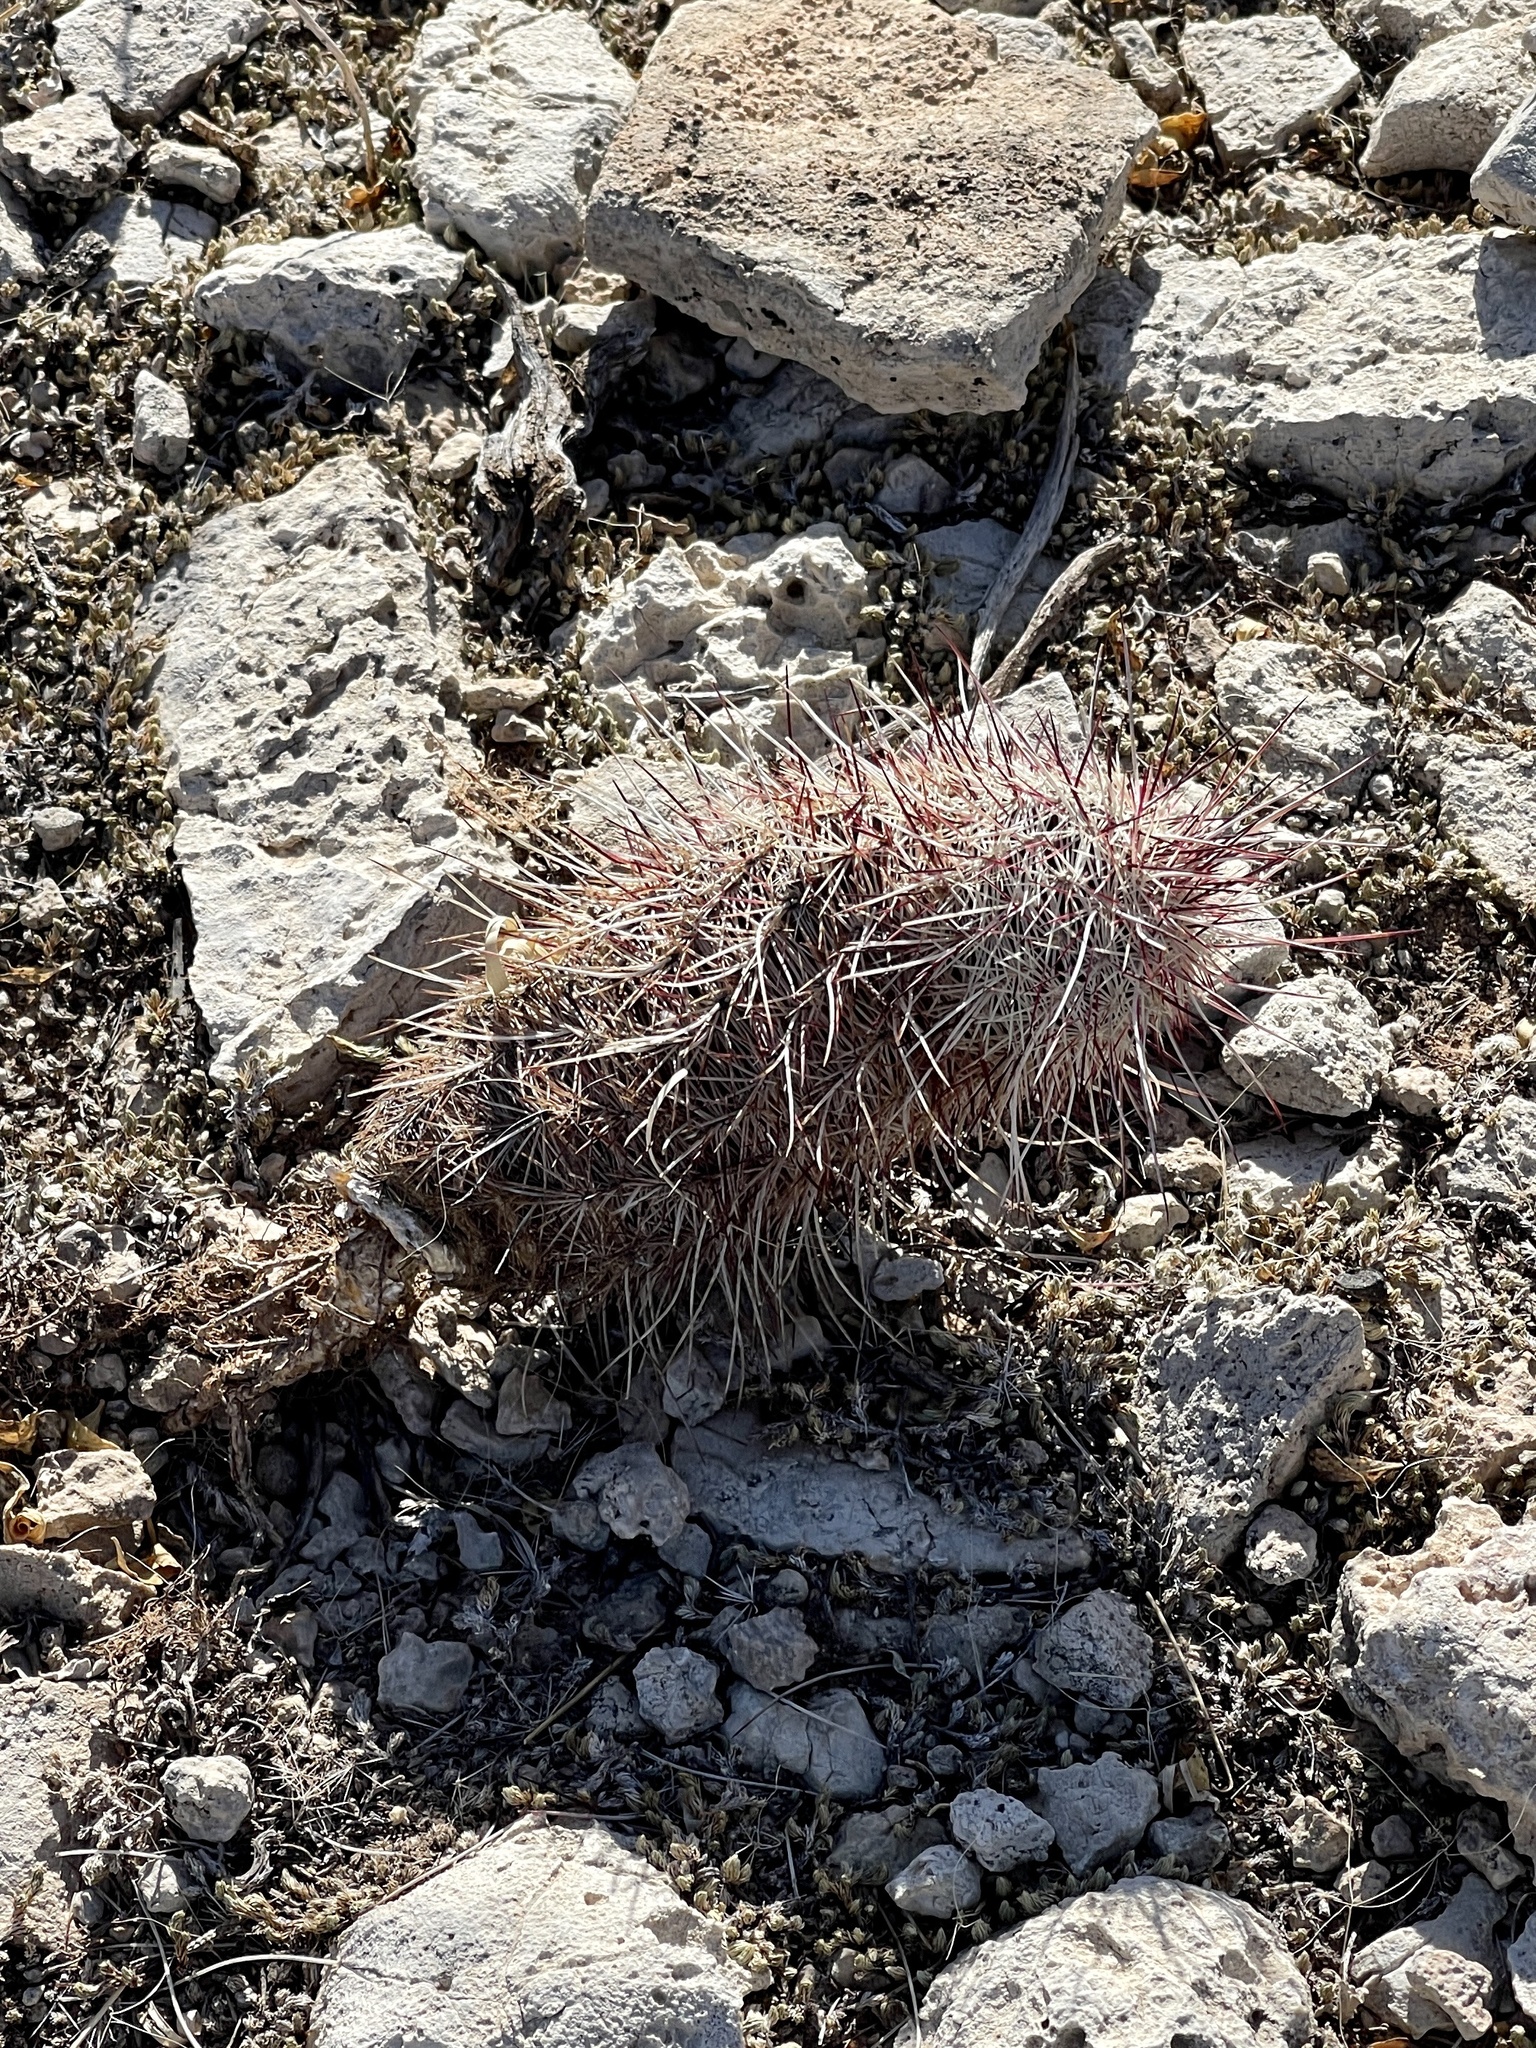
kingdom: Plantae
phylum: Tracheophyta
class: Magnoliopsida
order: Caryophyllales
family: Cactaceae
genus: Echinocereus
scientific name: Echinocereus viridiflorus
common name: Nylon hedgehog cactus
